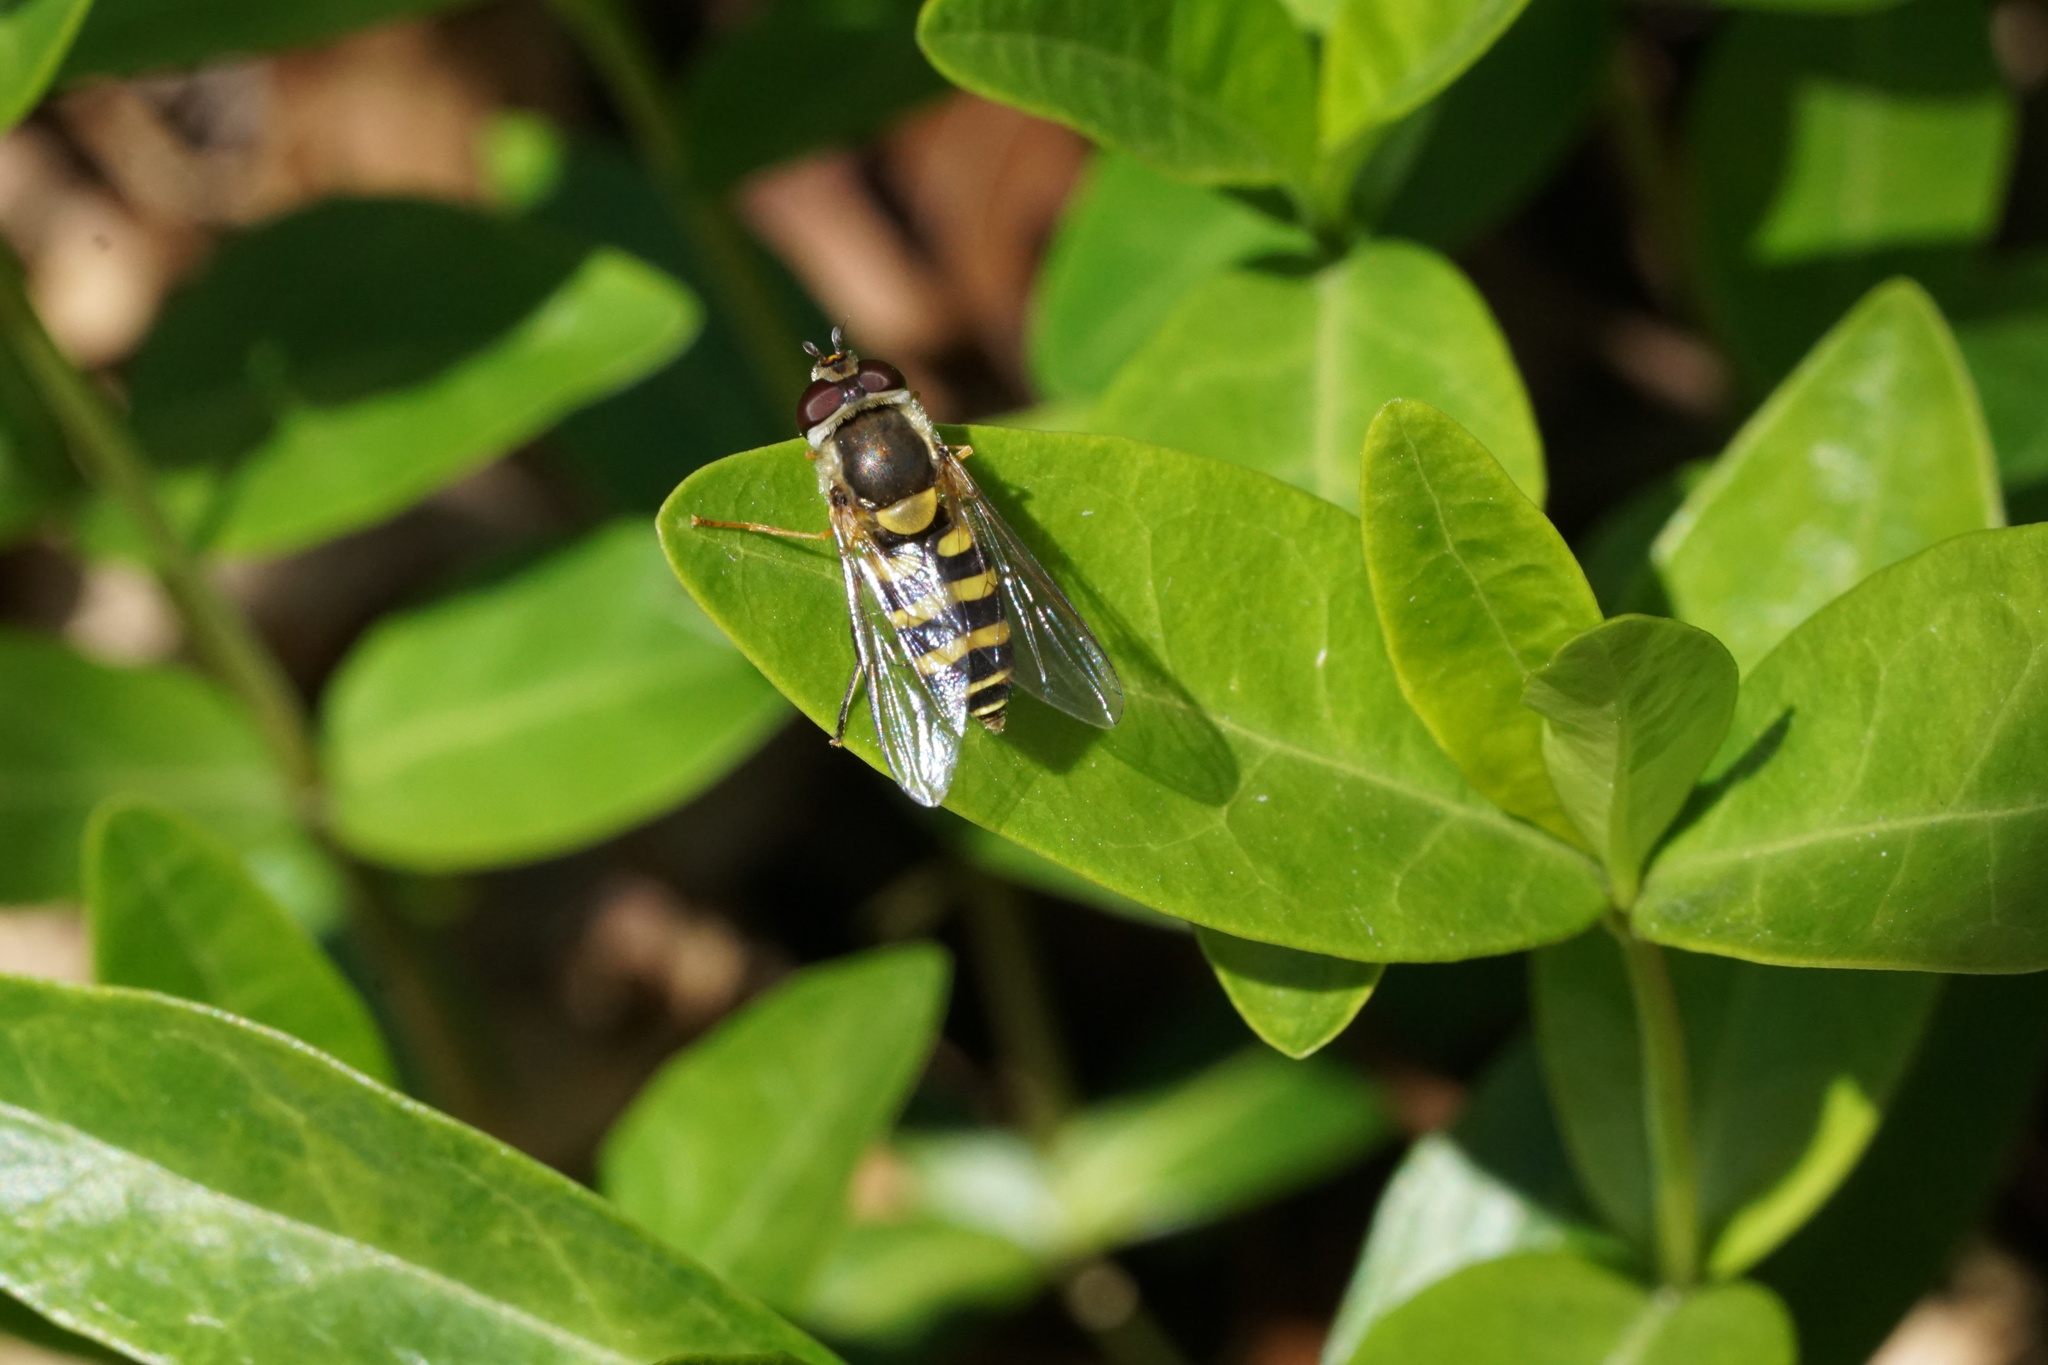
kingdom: Animalia
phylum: Arthropoda
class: Insecta
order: Diptera
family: Syrphidae
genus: Syrphus
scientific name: Syrphus
